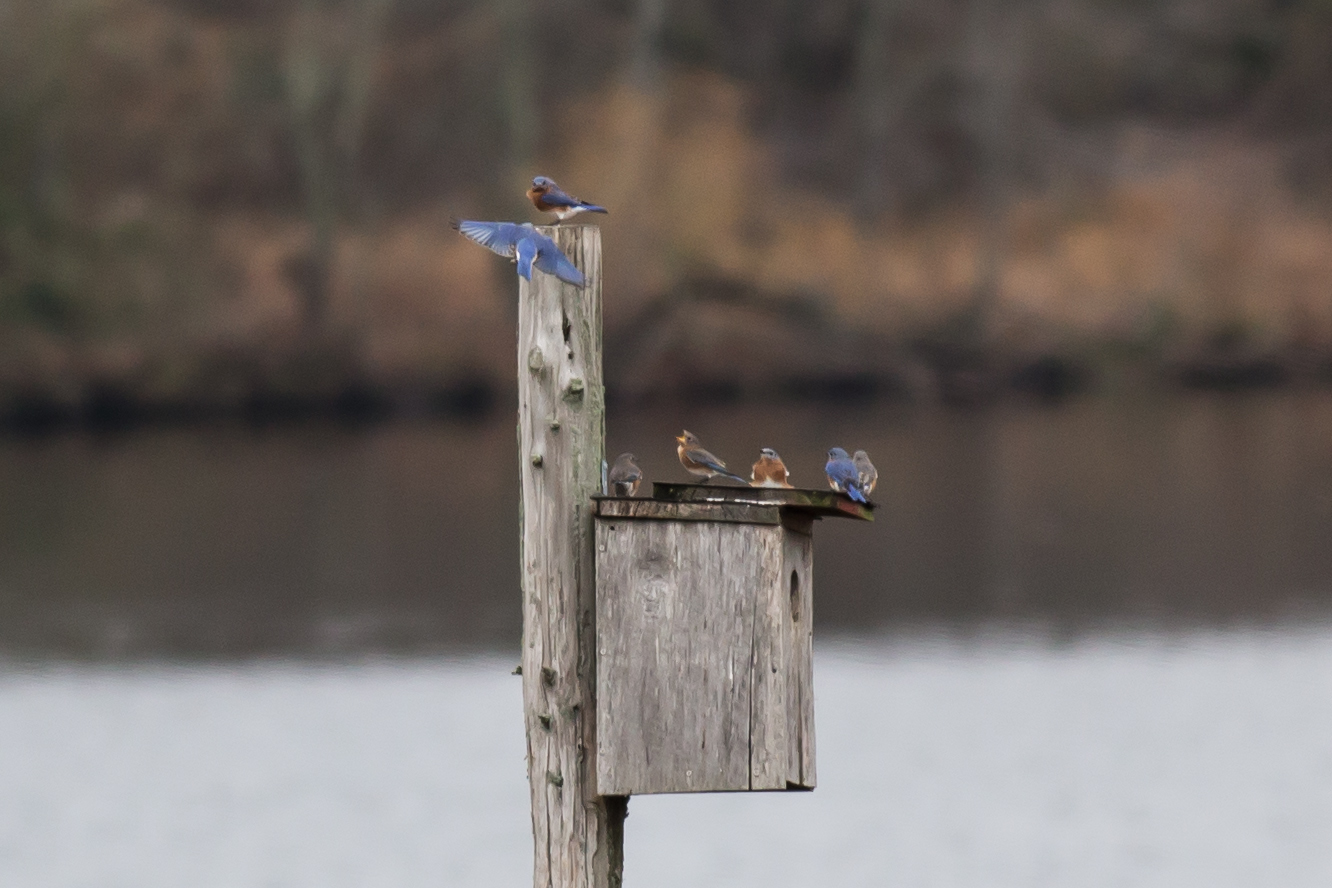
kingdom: Animalia
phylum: Chordata
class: Aves
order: Passeriformes
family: Turdidae
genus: Sialia
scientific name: Sialia sialis
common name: Eastern bluebird
